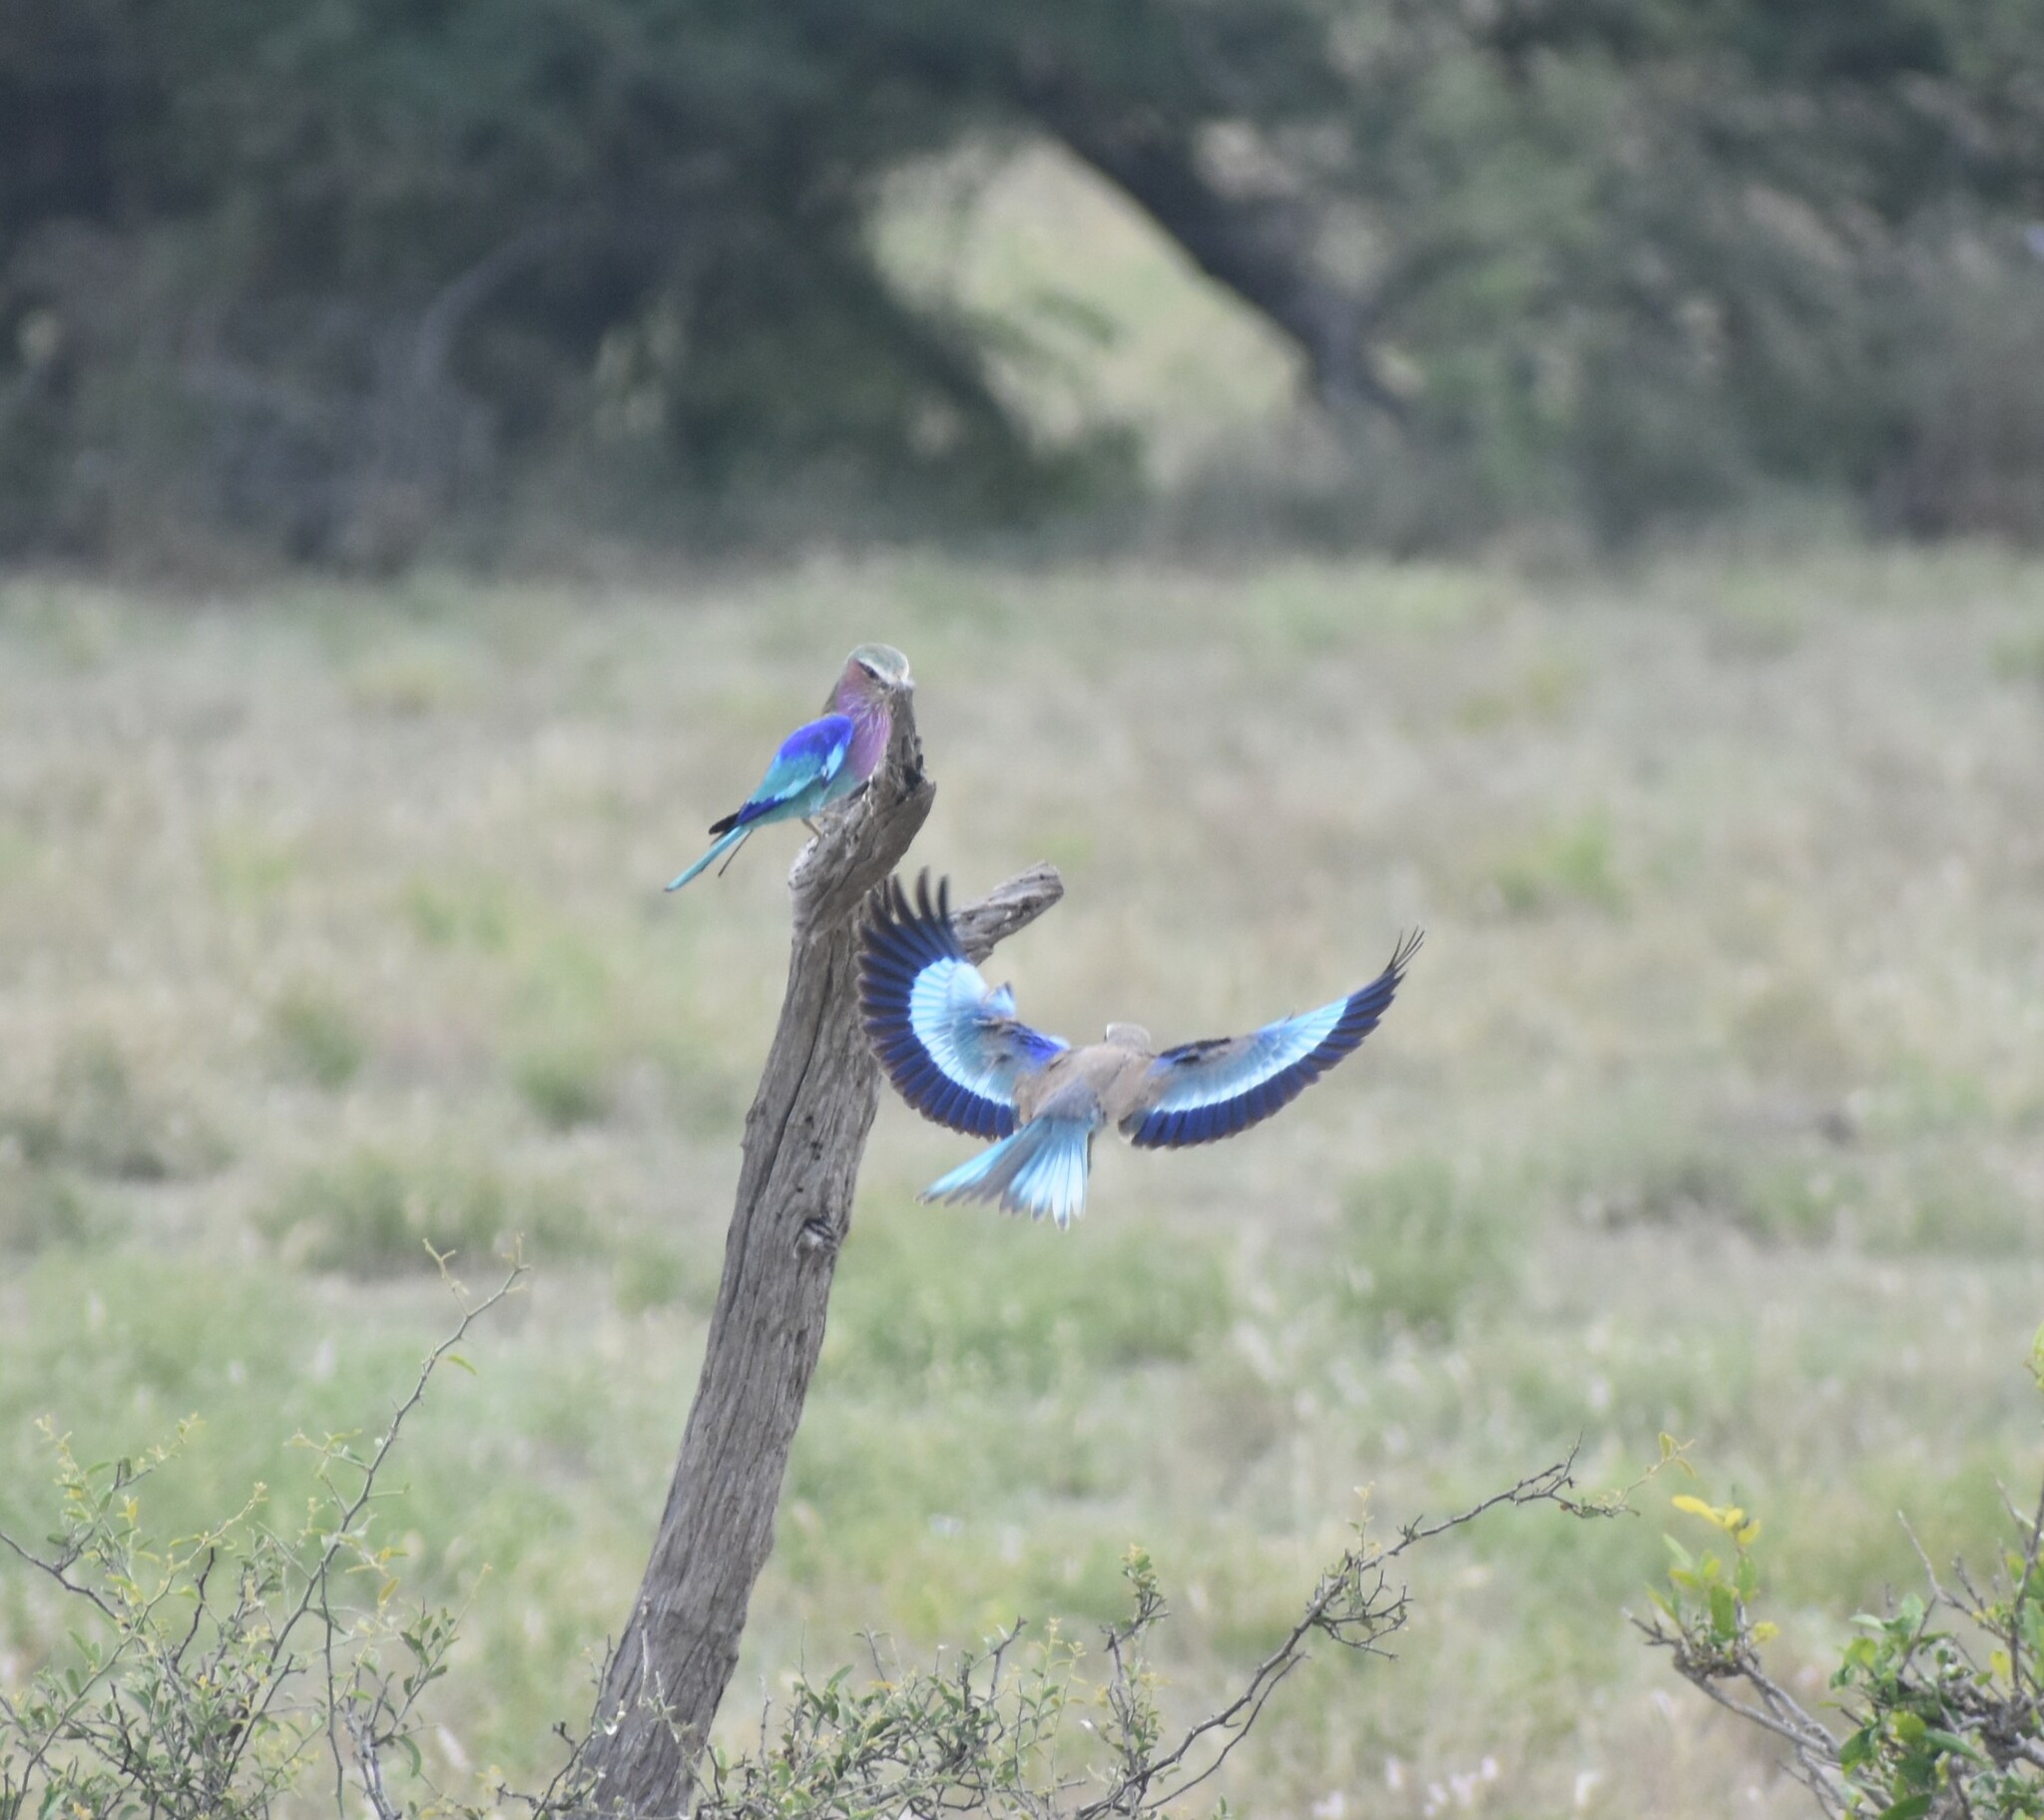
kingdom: Animalia
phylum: Chordata
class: Aves
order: Coraciiformes
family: Coraciidae
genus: Coracias
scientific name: Coracias caudatus
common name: Lilac-breasted roller
